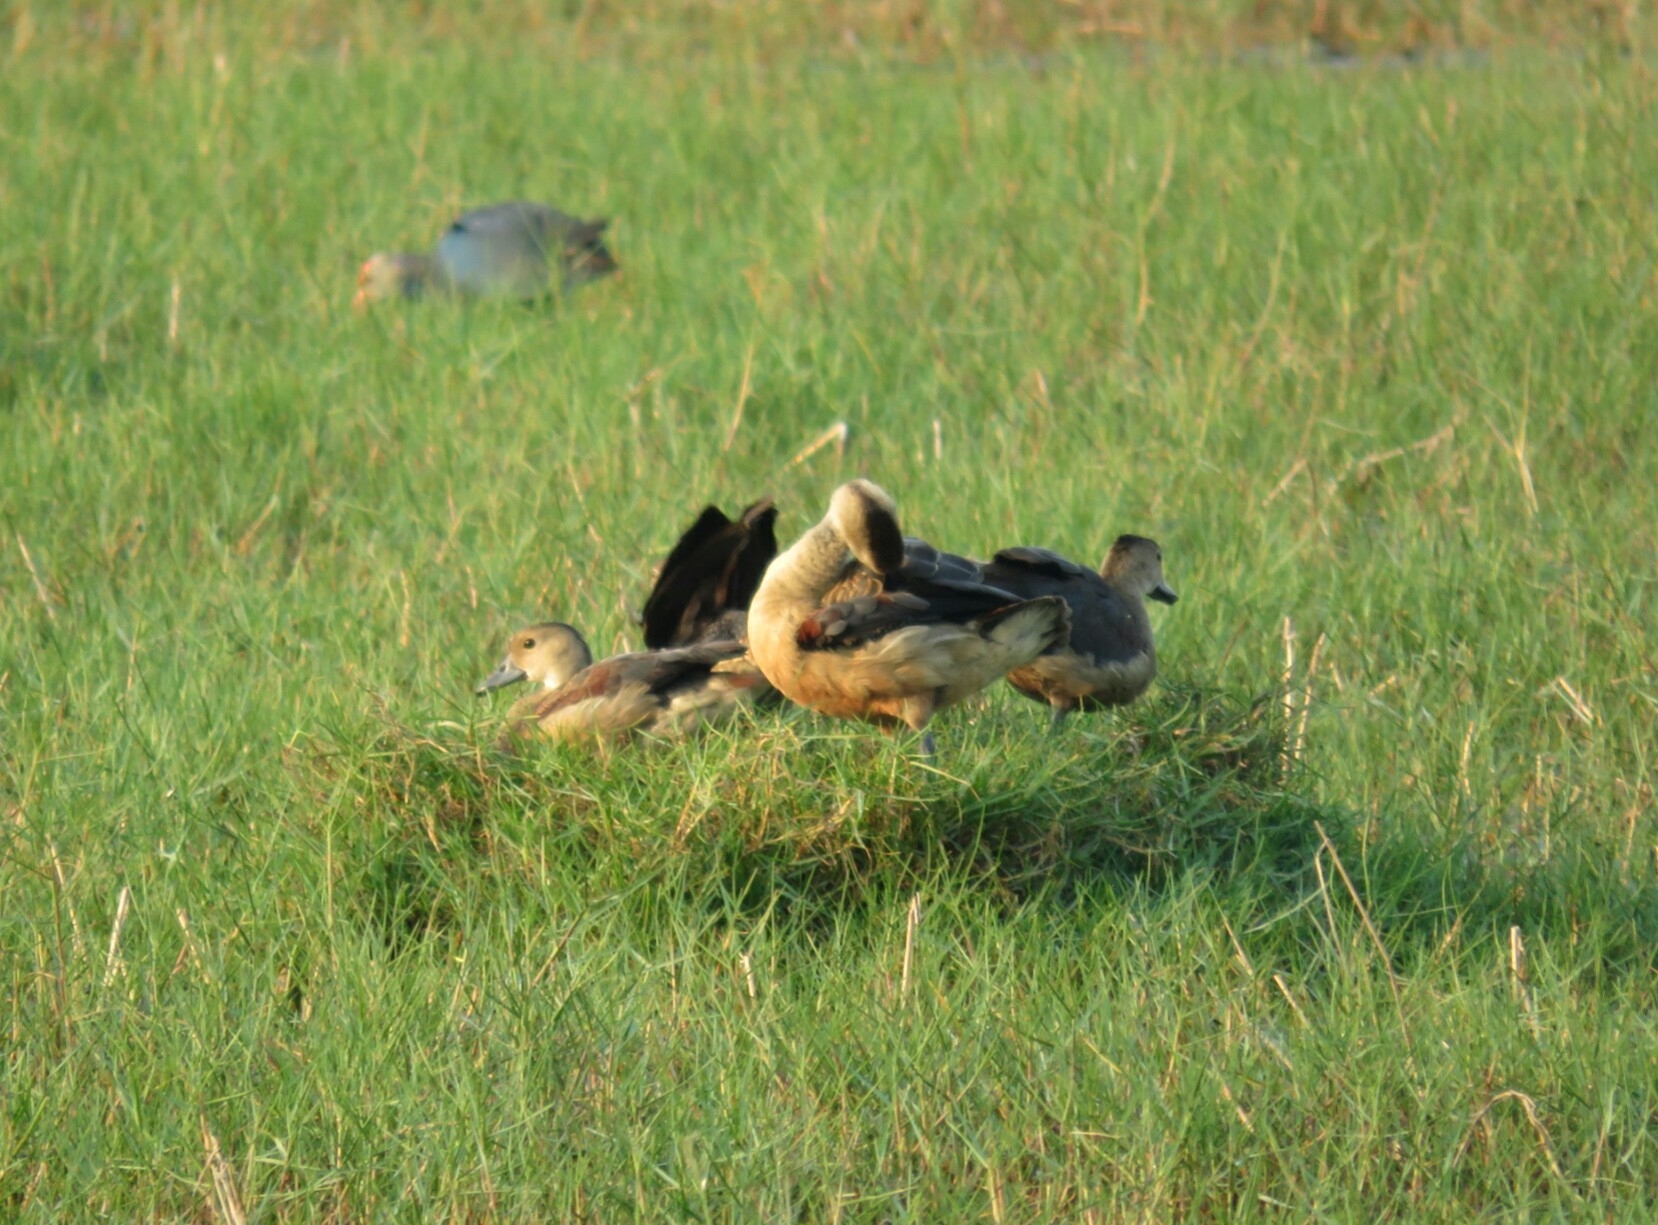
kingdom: Animalia
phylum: Chordata
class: Aves
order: Anseriformes
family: Anatidae
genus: Dendrocygna
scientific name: Dendrocygna javanica
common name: Lesser whistling-duck
